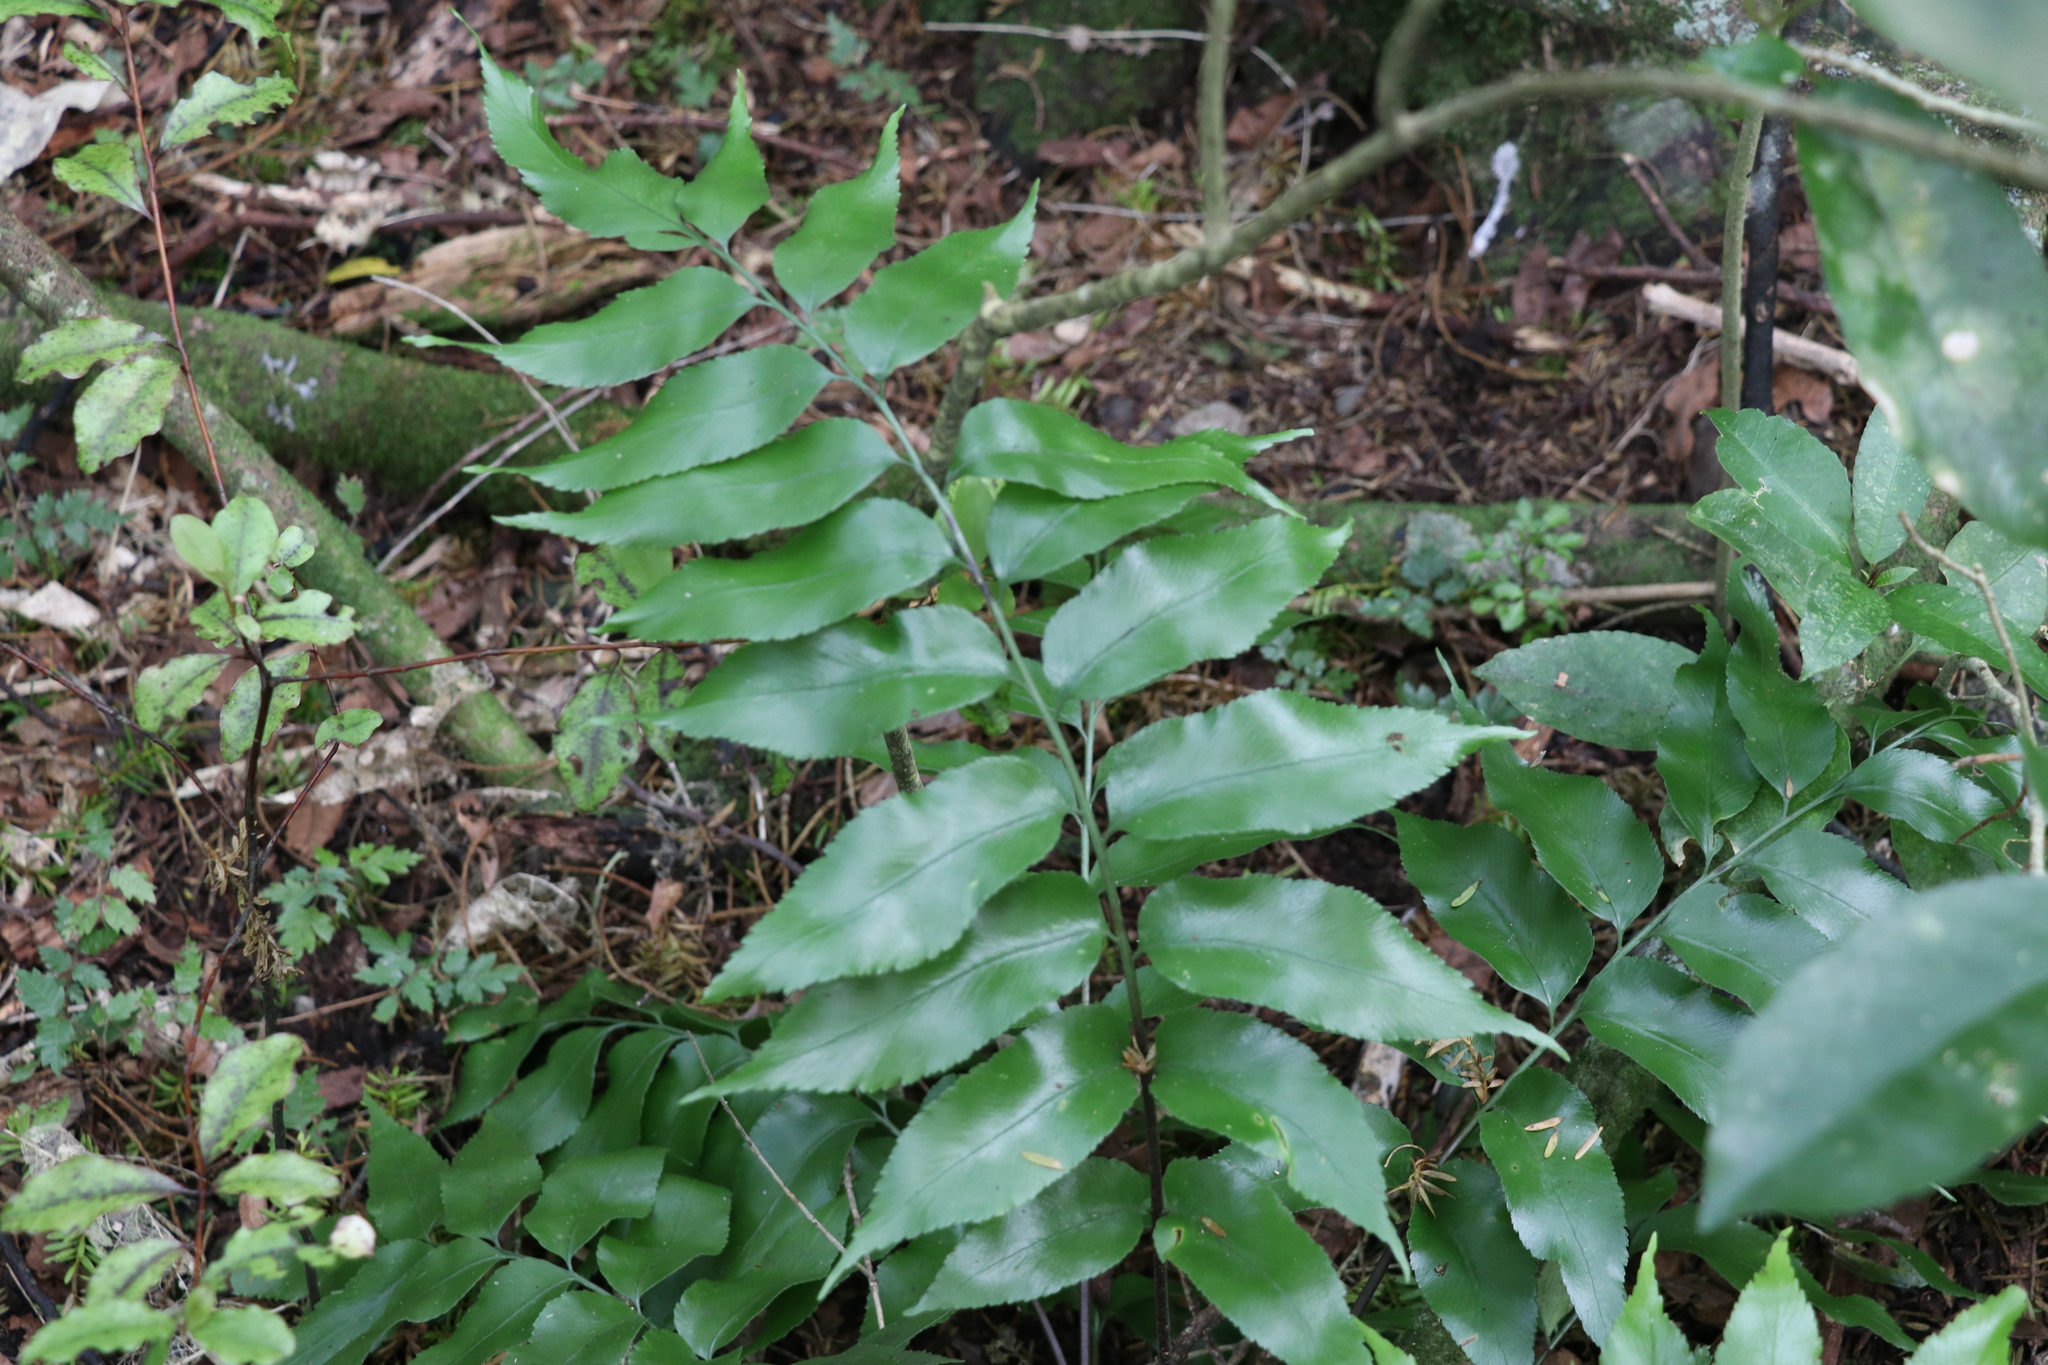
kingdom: Plantae
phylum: Tracheophyta
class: Polypodiopsida
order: Polypodiales
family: Aspleniaceae
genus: Asplenium
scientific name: Asplenium oblongifolium
